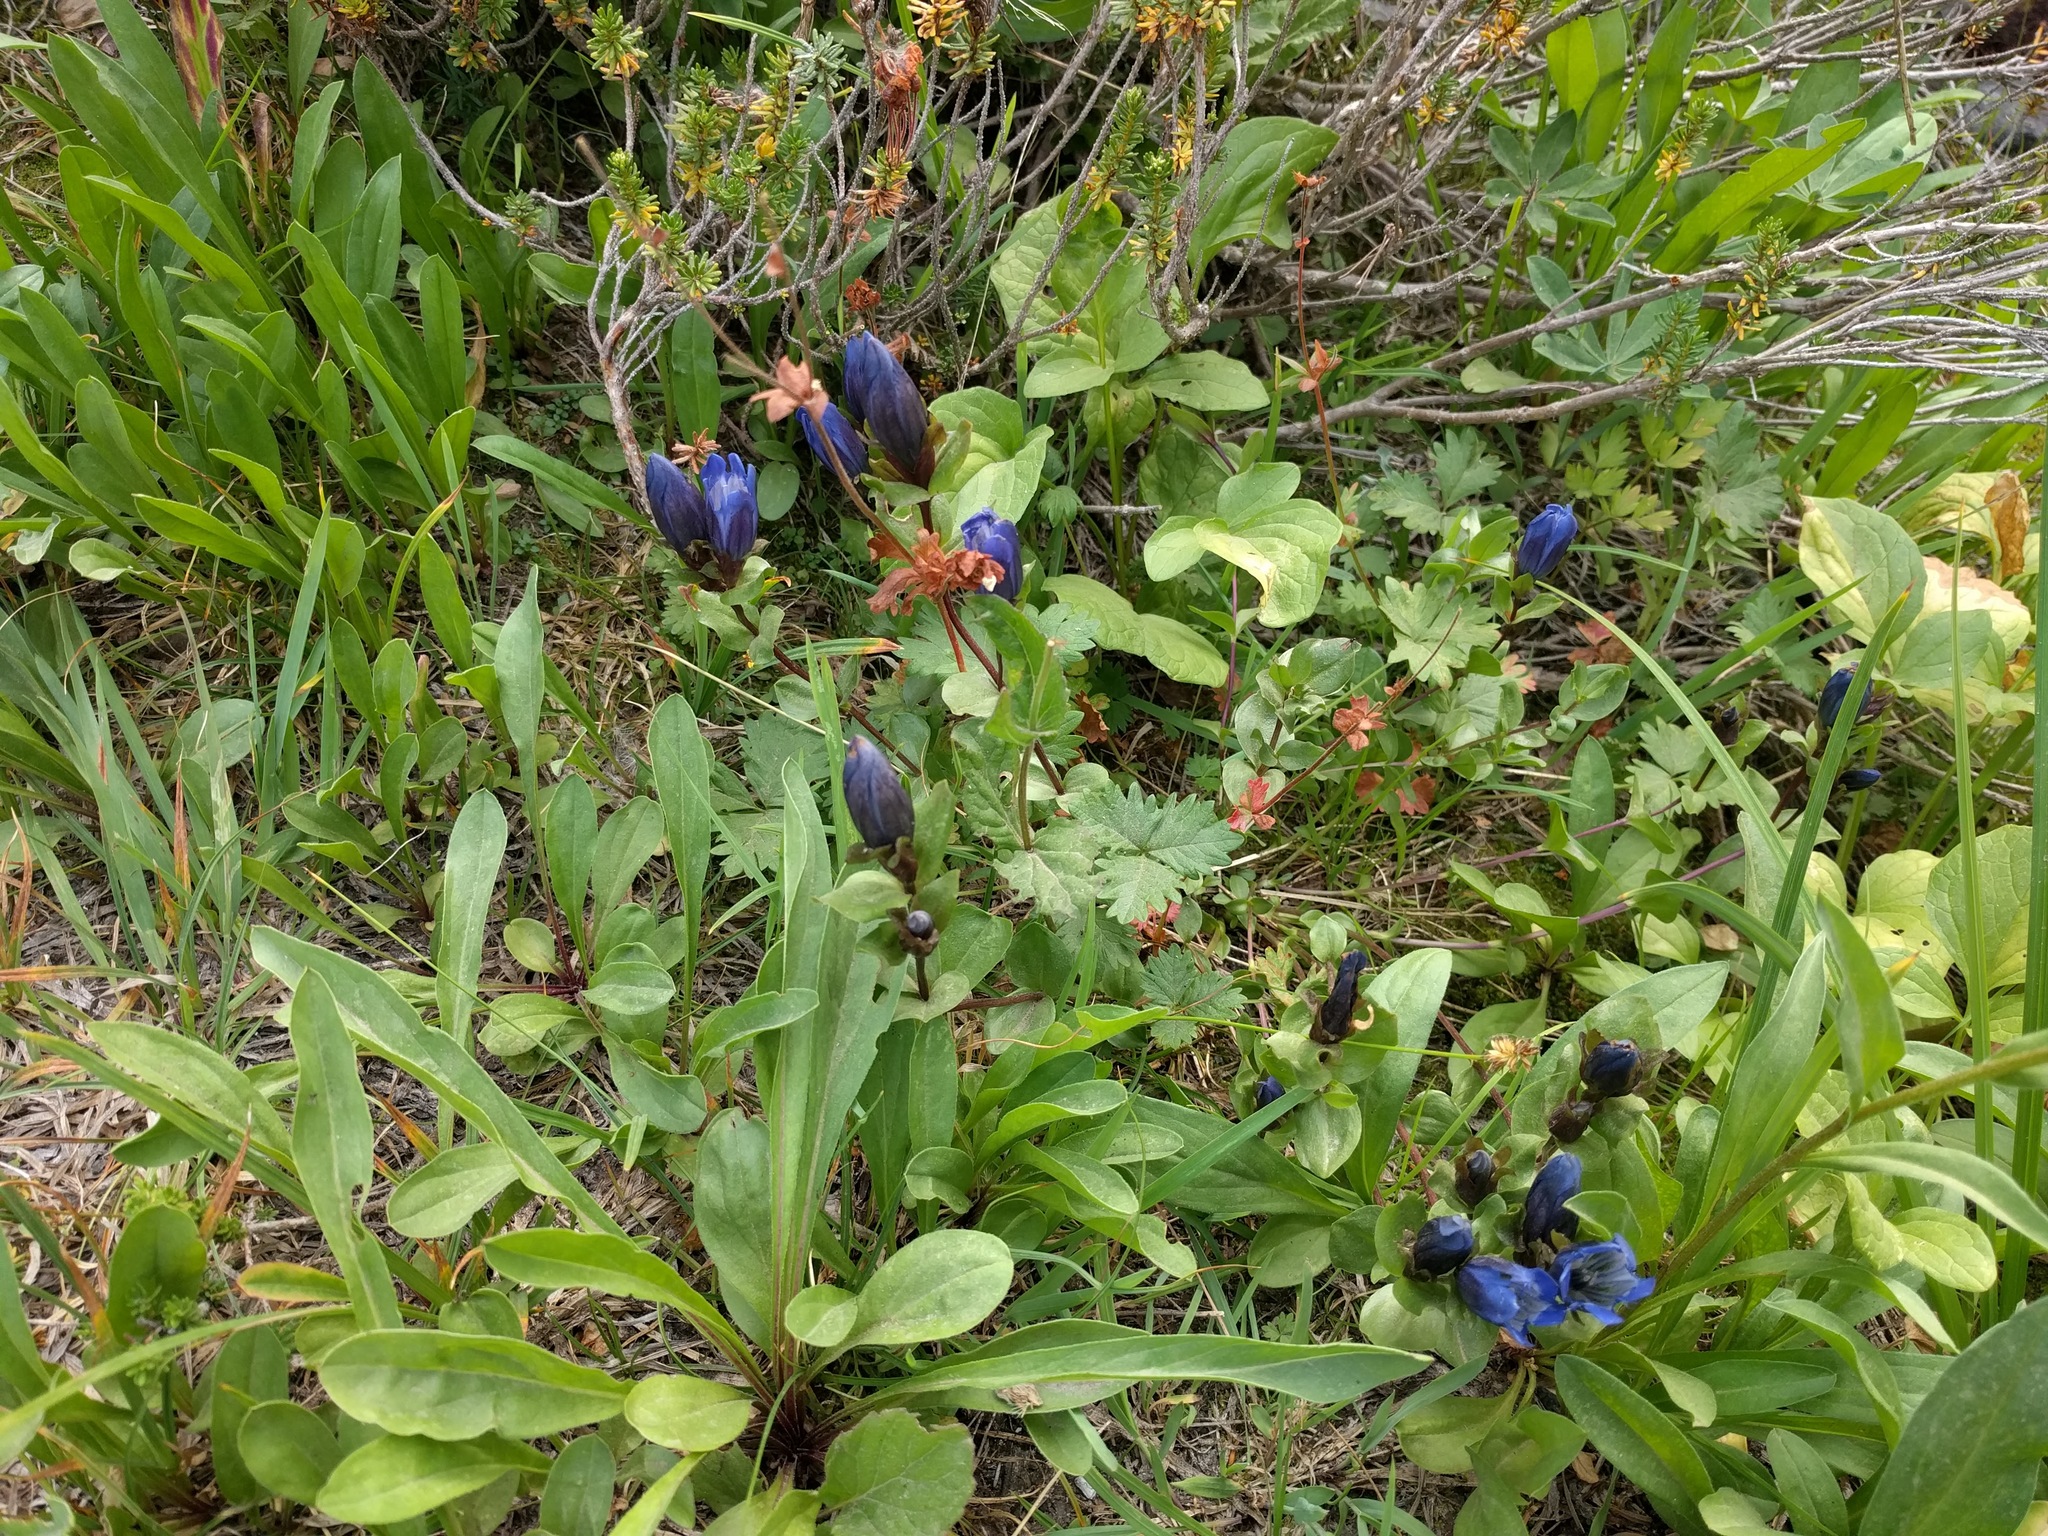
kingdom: Plantae
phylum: Tracheophyta
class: Magnoliopsida
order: Gentianales
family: Gentianaceae
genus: Gentiana
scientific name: Gentiana calycosa
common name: Rainier pleated gentian
